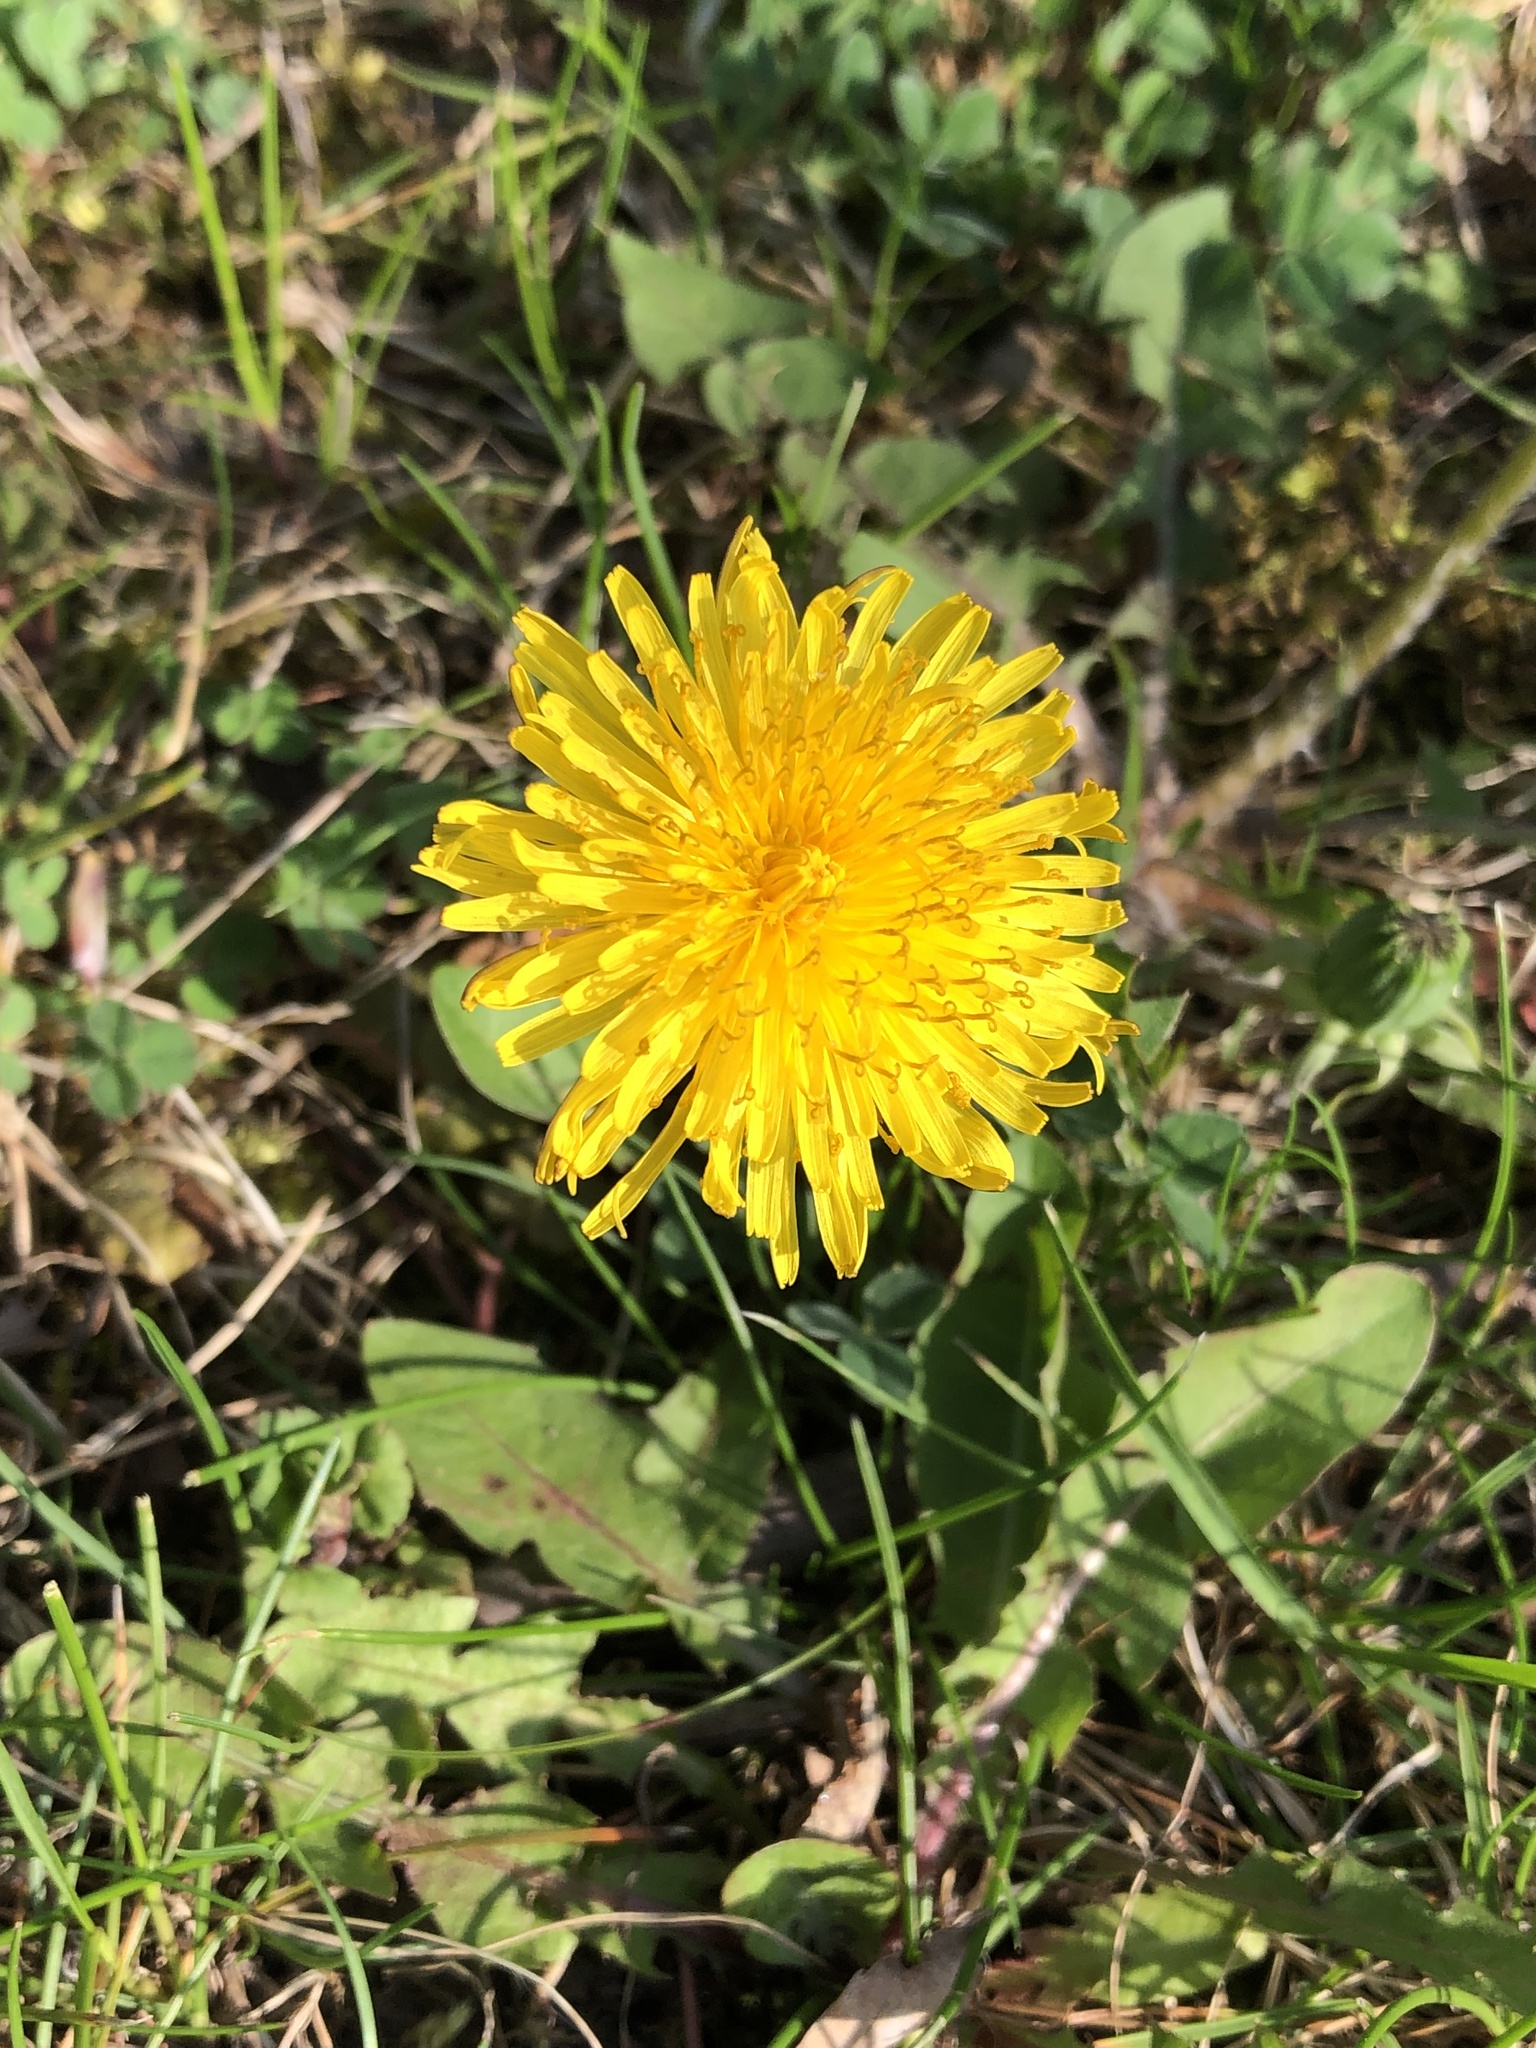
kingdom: Plantae
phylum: Tracheophyta
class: Magnoliopsida
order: Asterales
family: Asteraceae
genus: Taraxacum
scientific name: Taraxacum officinale
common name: Common dandelion
